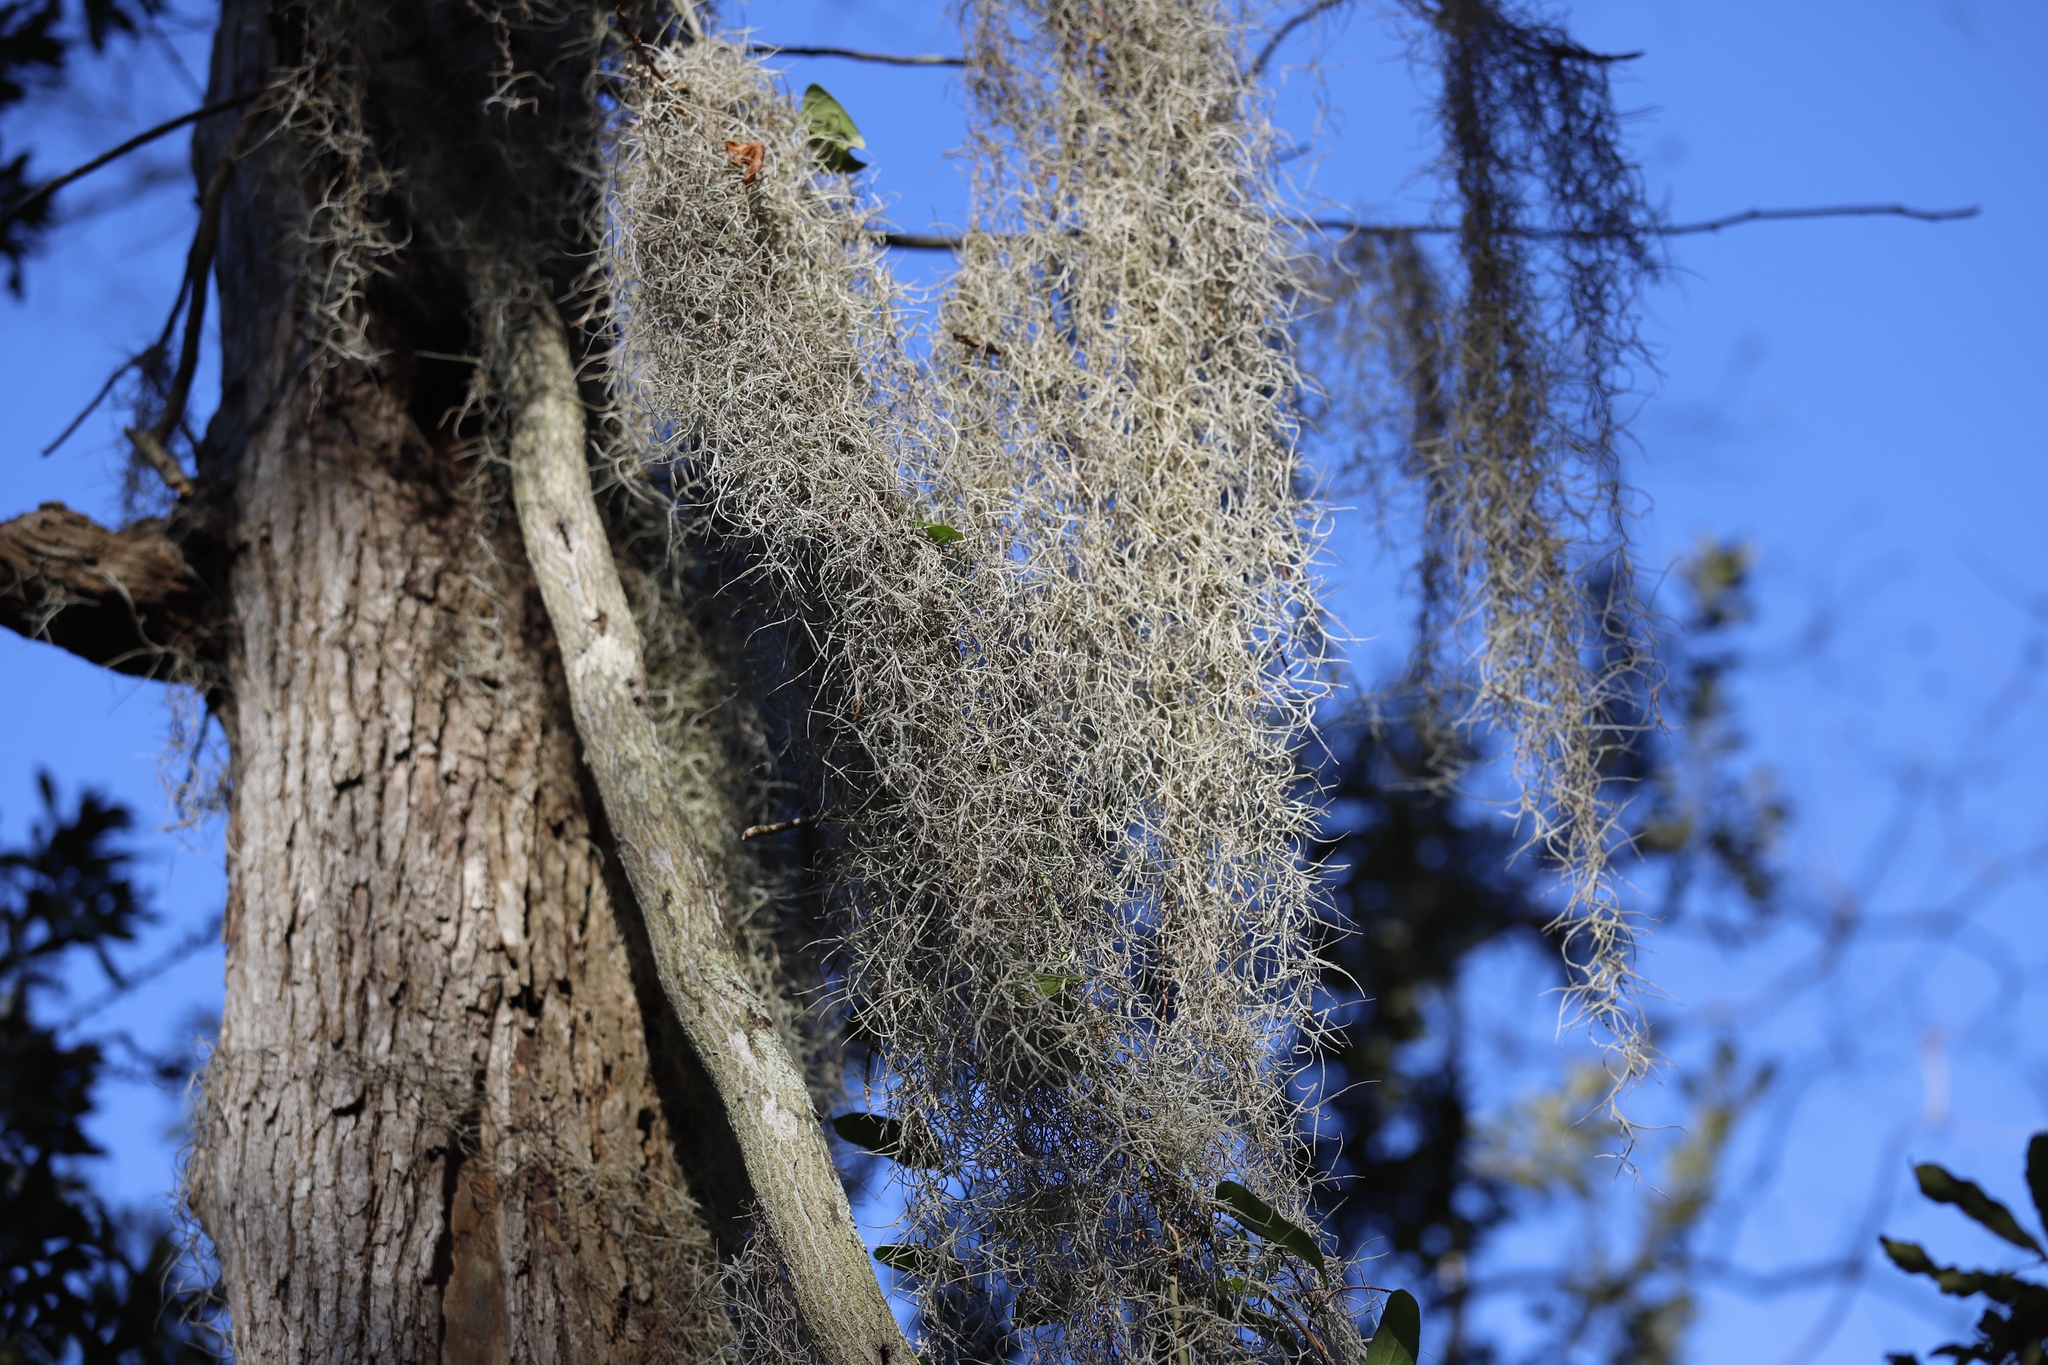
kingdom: Plantae
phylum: Tracheophyta
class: Liliopsida
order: Poales
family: Bromeliaceae
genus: Tillandsia
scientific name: Tillandsia usneoides
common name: Spanish moss
